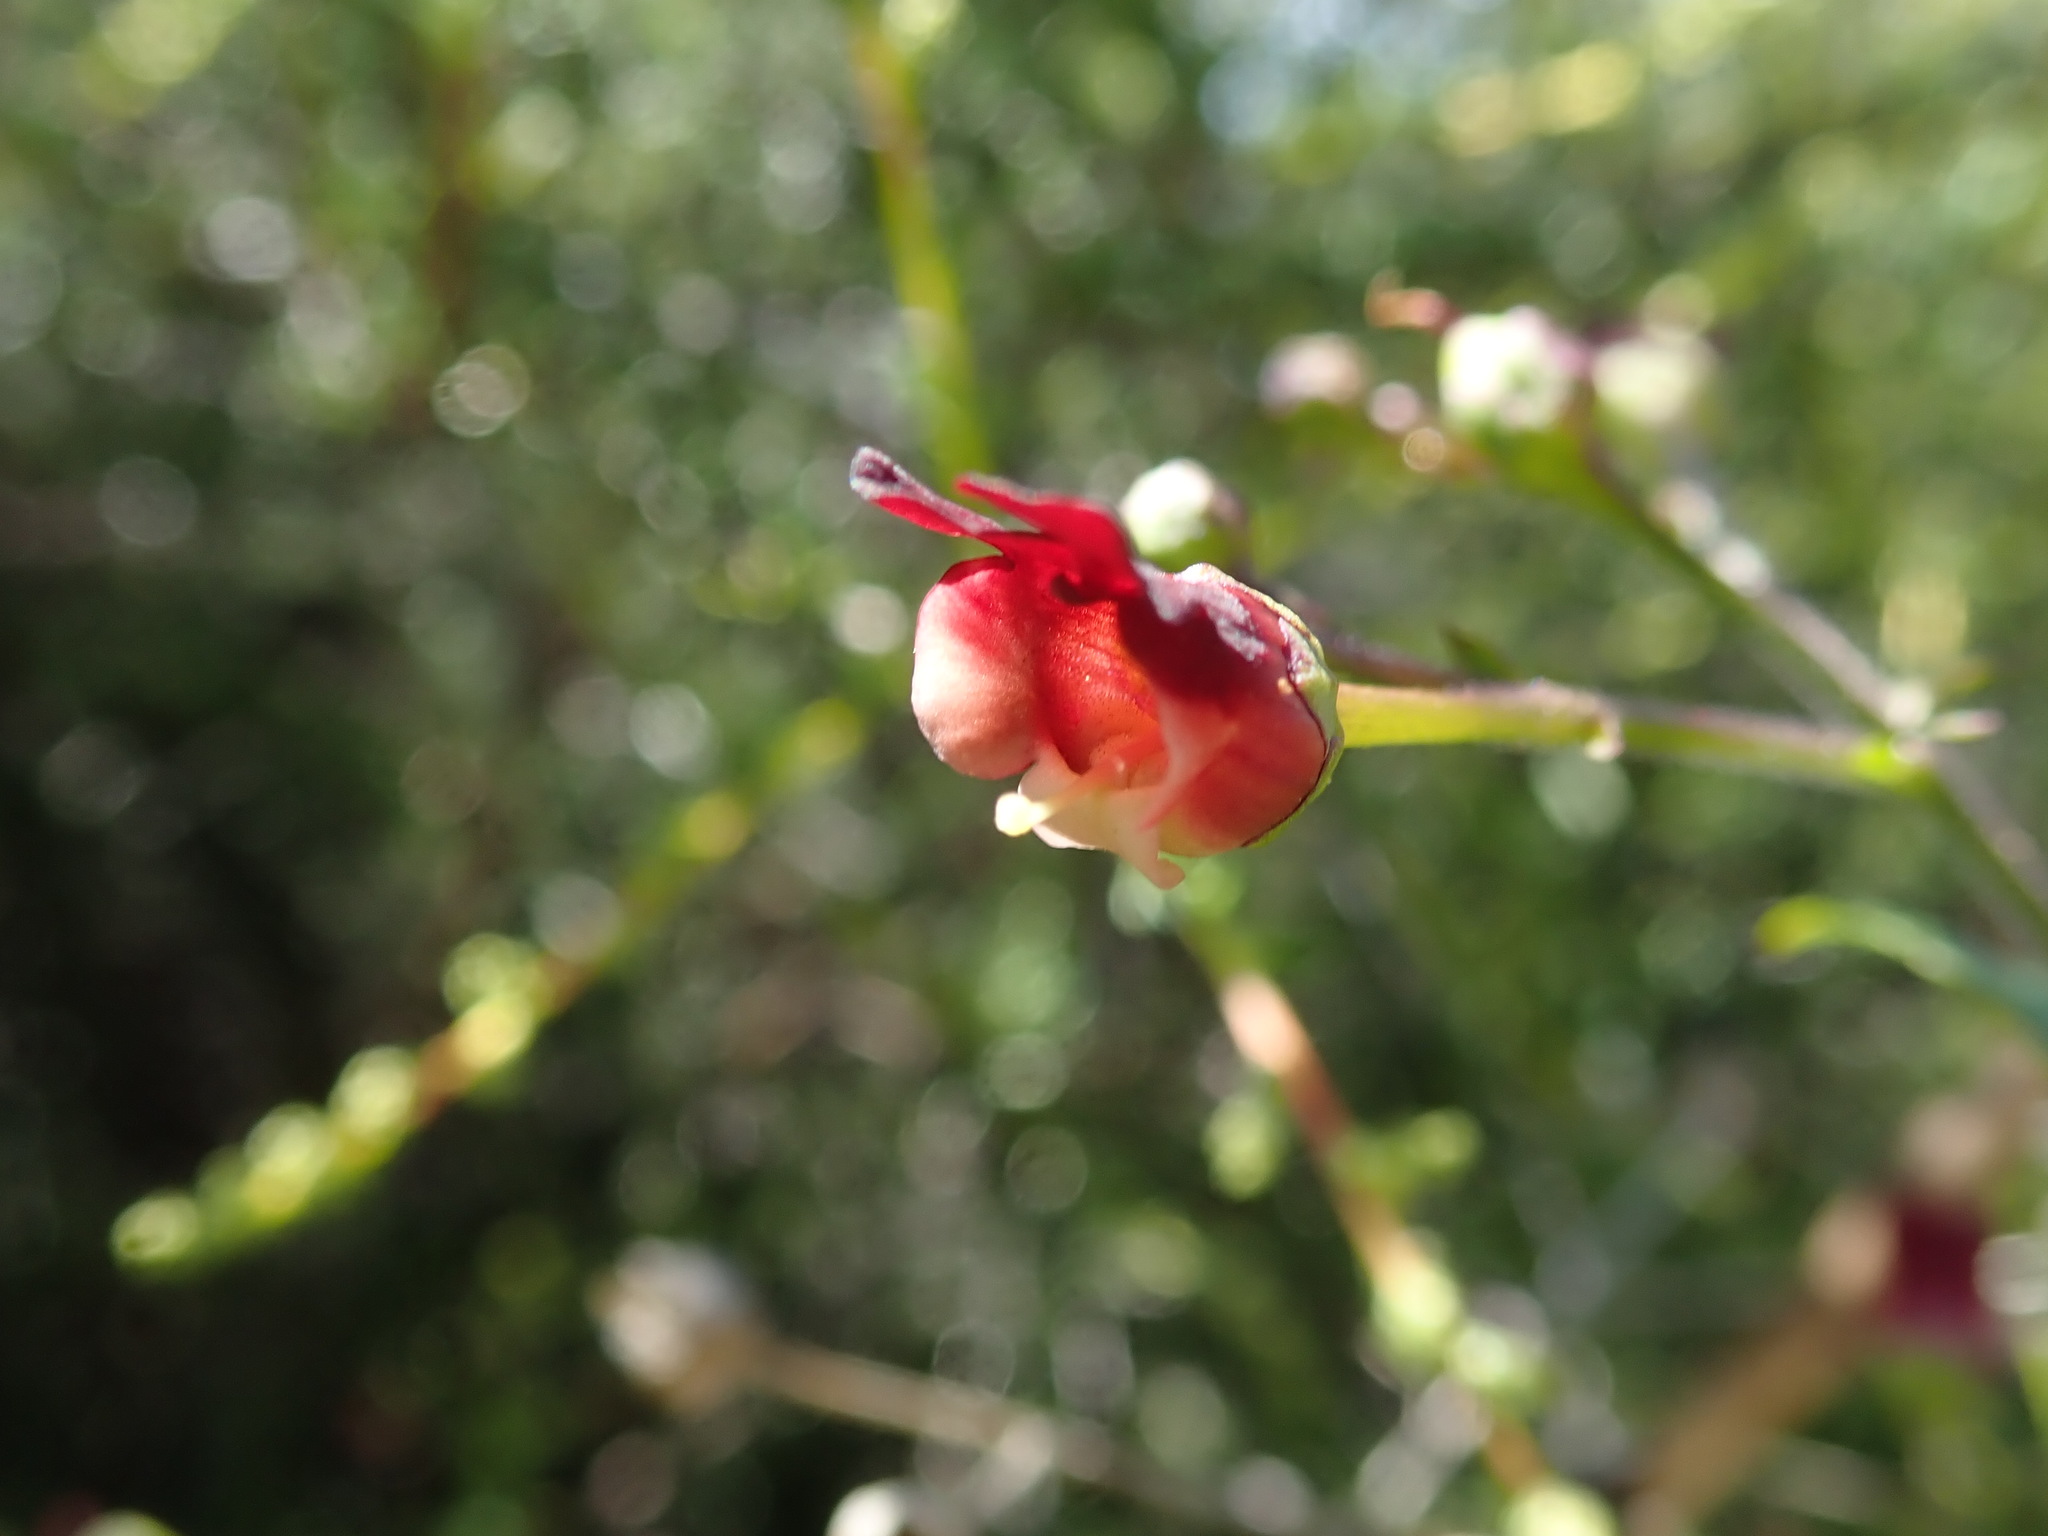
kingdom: Plantae
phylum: Tracheophyta
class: Magnoliopsida
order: Lamiales
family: Scrophulariaceae
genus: Scrophularia
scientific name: Scrophularia californica
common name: California figwort
